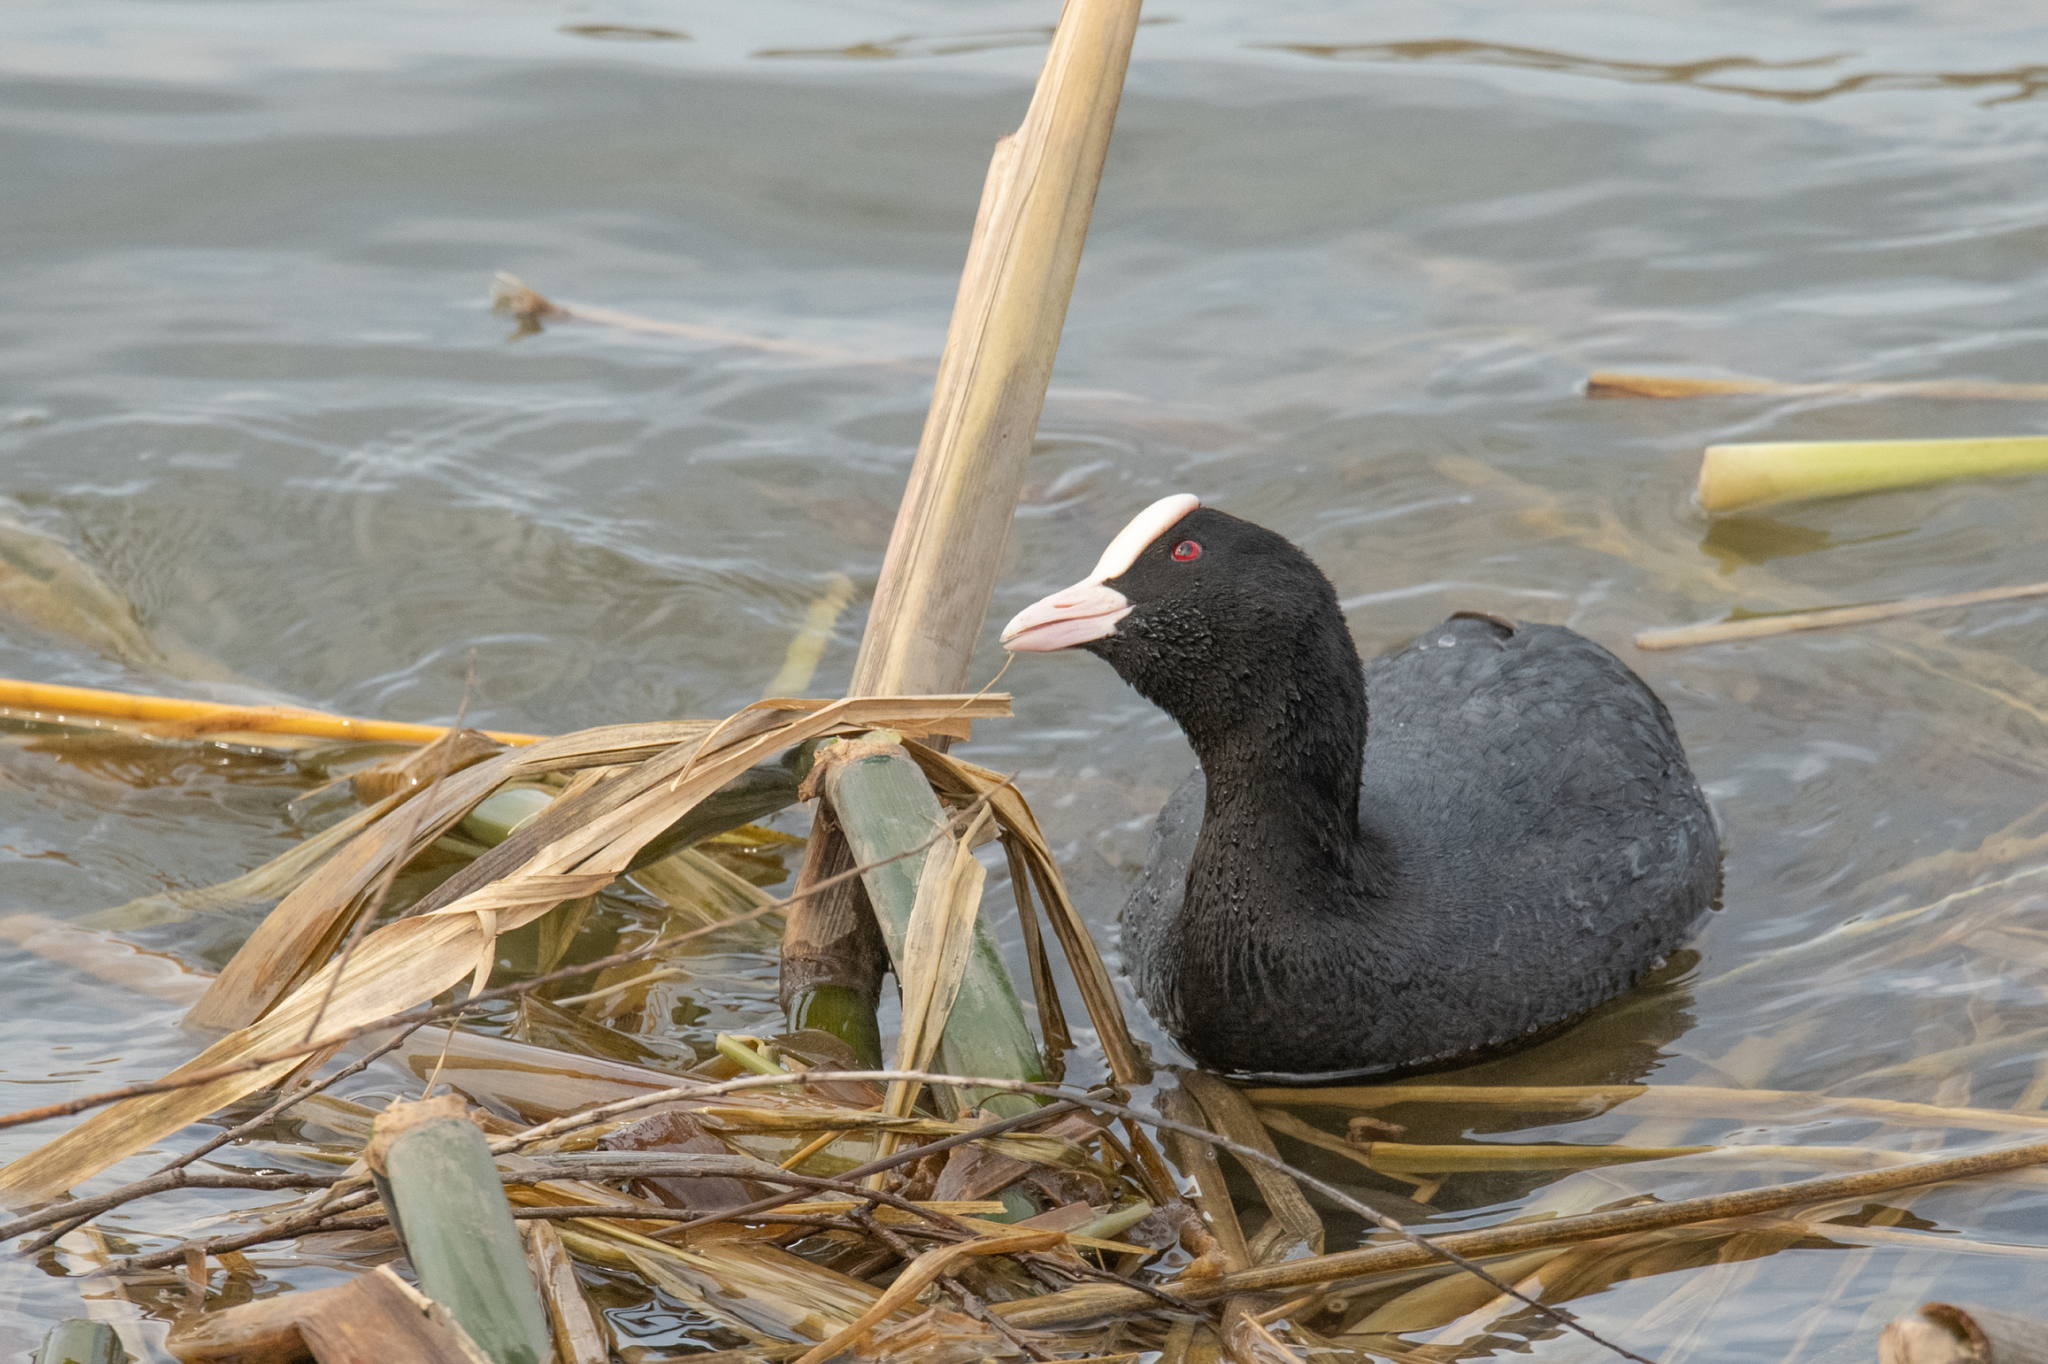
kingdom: Animalia
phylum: Chordata
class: Aves
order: Gruiformes
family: Rallidae
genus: Fulica
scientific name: Fulica atra
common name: Eurasian coot
